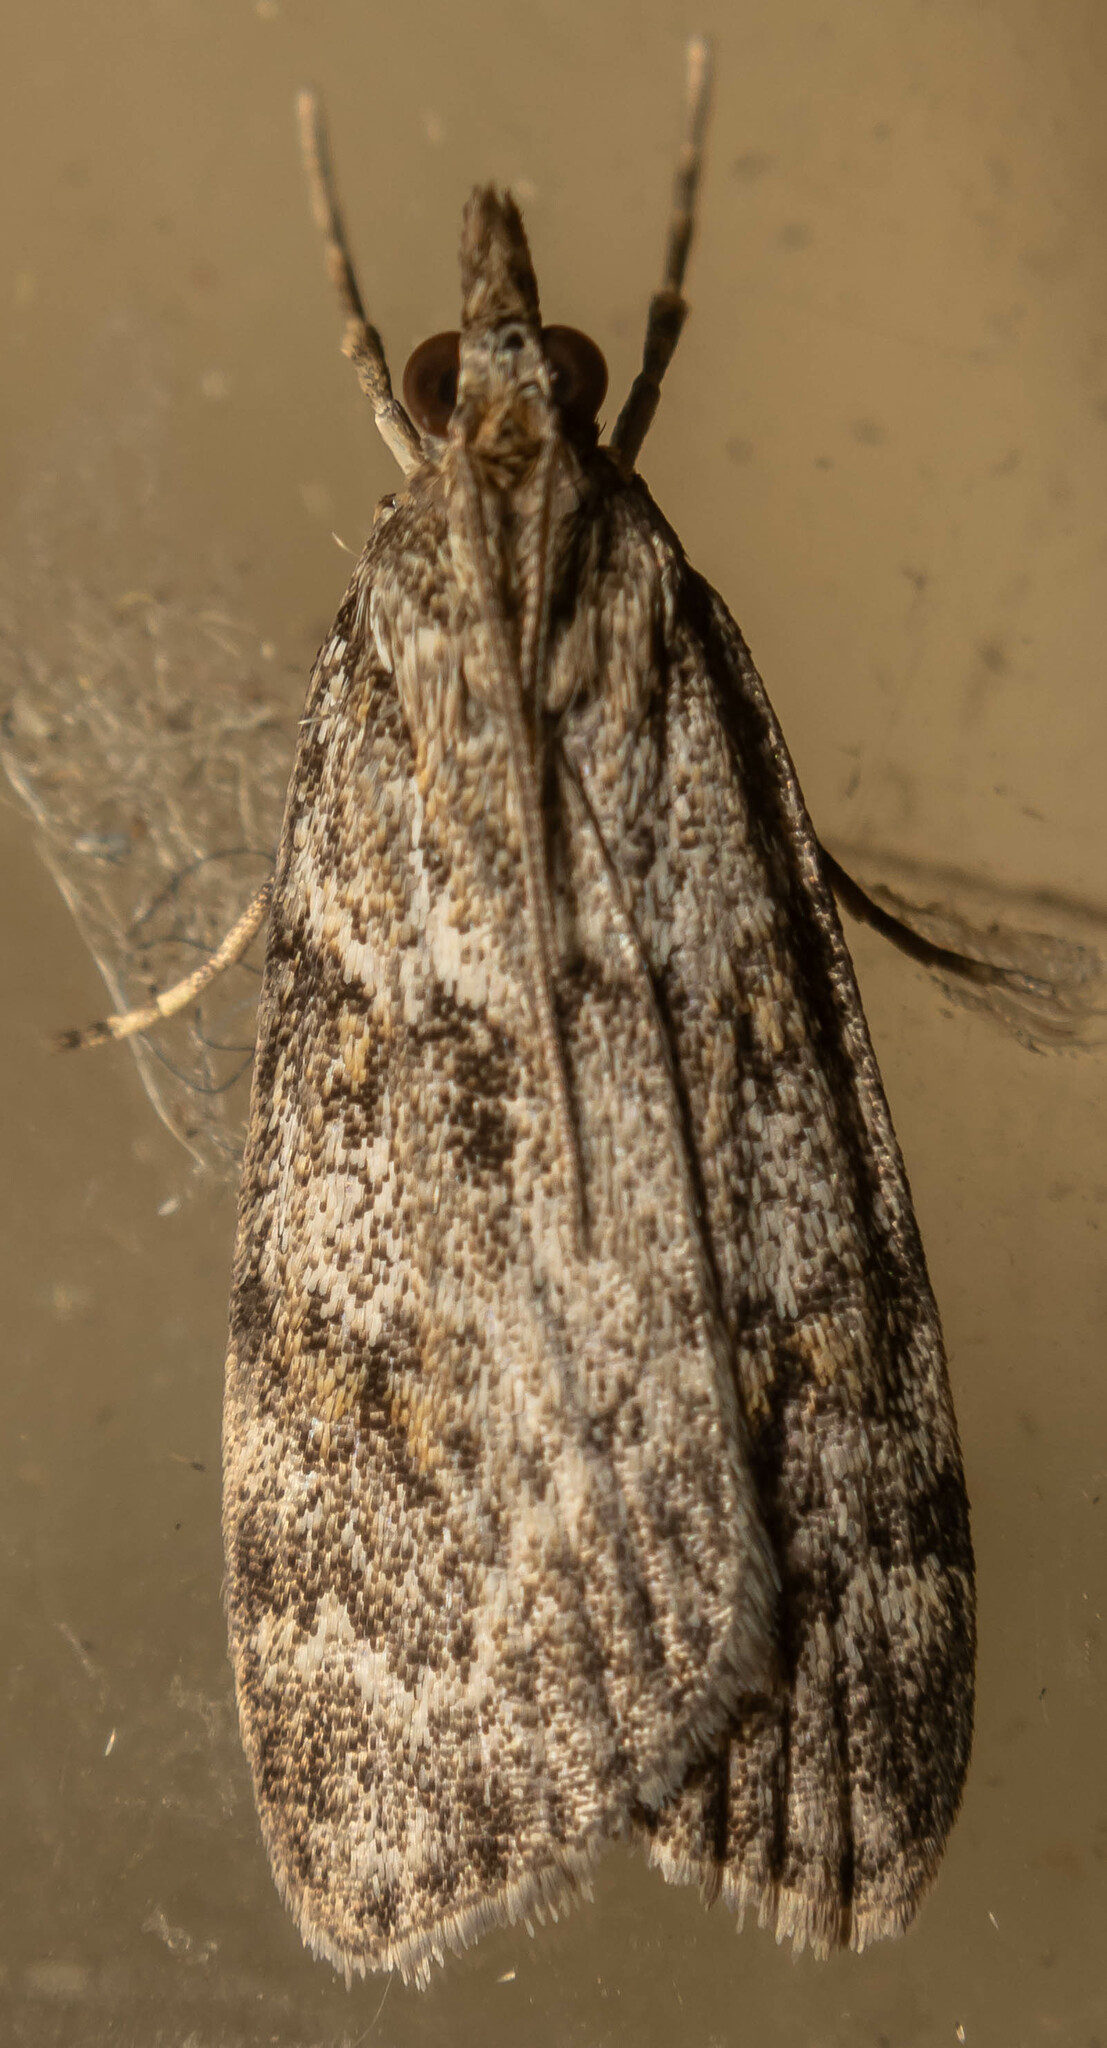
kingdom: Animalia
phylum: Arthropoda
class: Insecta
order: Lepidoptera
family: Crambidae
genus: Scoparia
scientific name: Scoparia ambigualis
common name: Common grey
